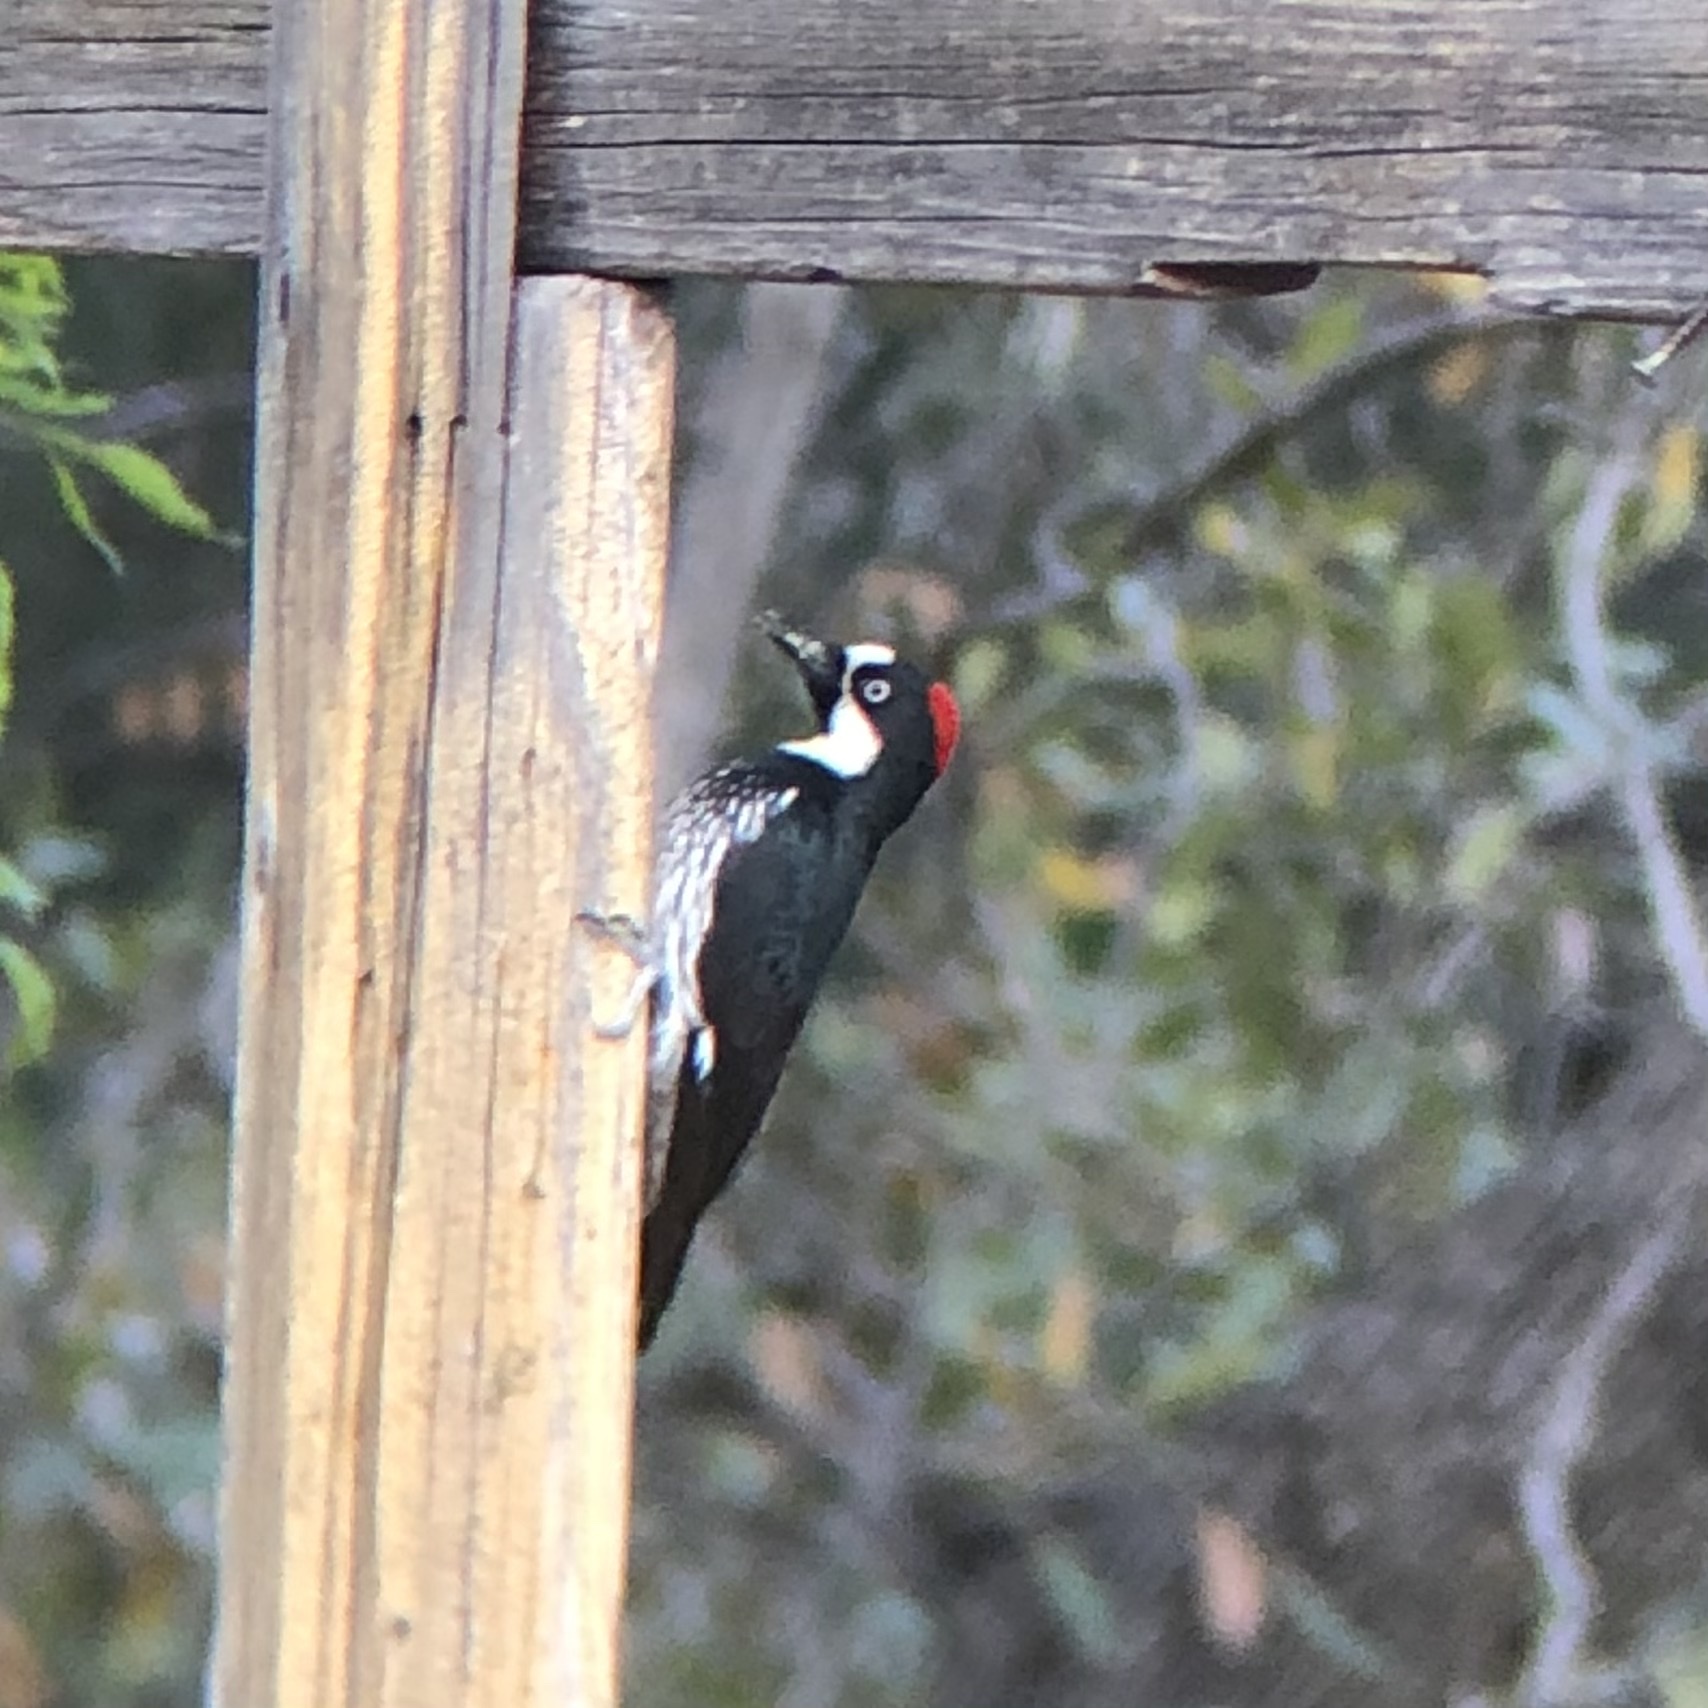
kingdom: Animalia
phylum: Chordata
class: Aves
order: Piciformes
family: Picidae
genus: Melanerpes
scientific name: Melanerpes formicivorus
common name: Acorn woodpecker
